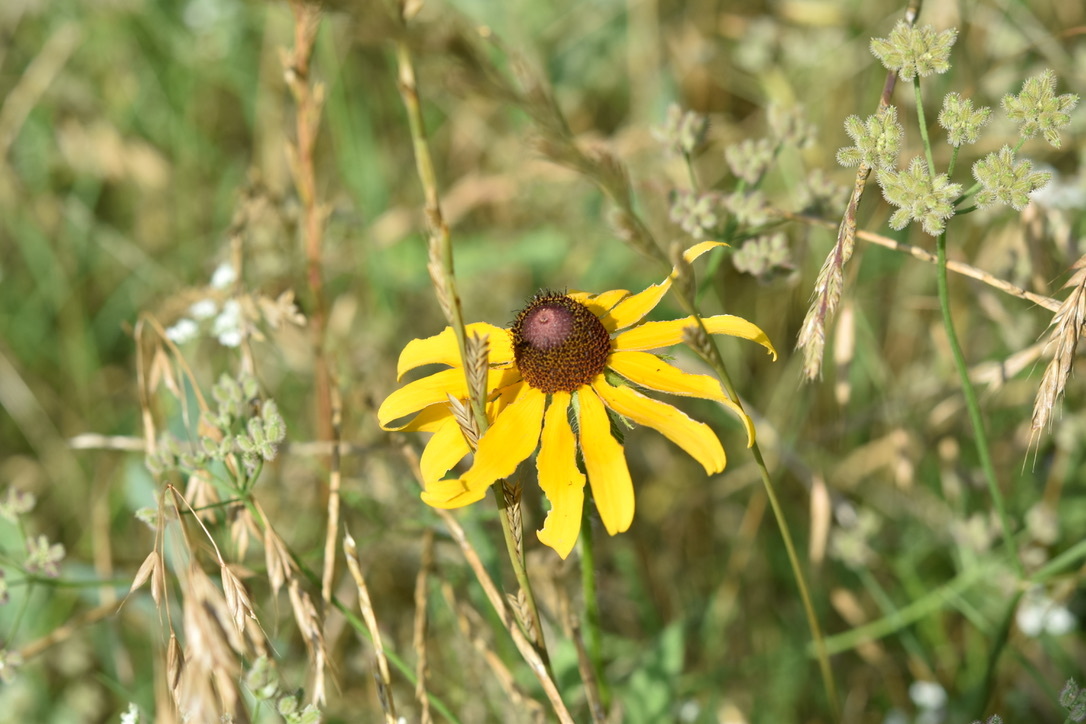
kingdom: Plantae
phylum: Tracheophyta
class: Magnoliopsida
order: Asterales
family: Asteraceae
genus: Rudbeckia
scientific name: Rudbeckia hirta
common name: Black-eyed-susan
